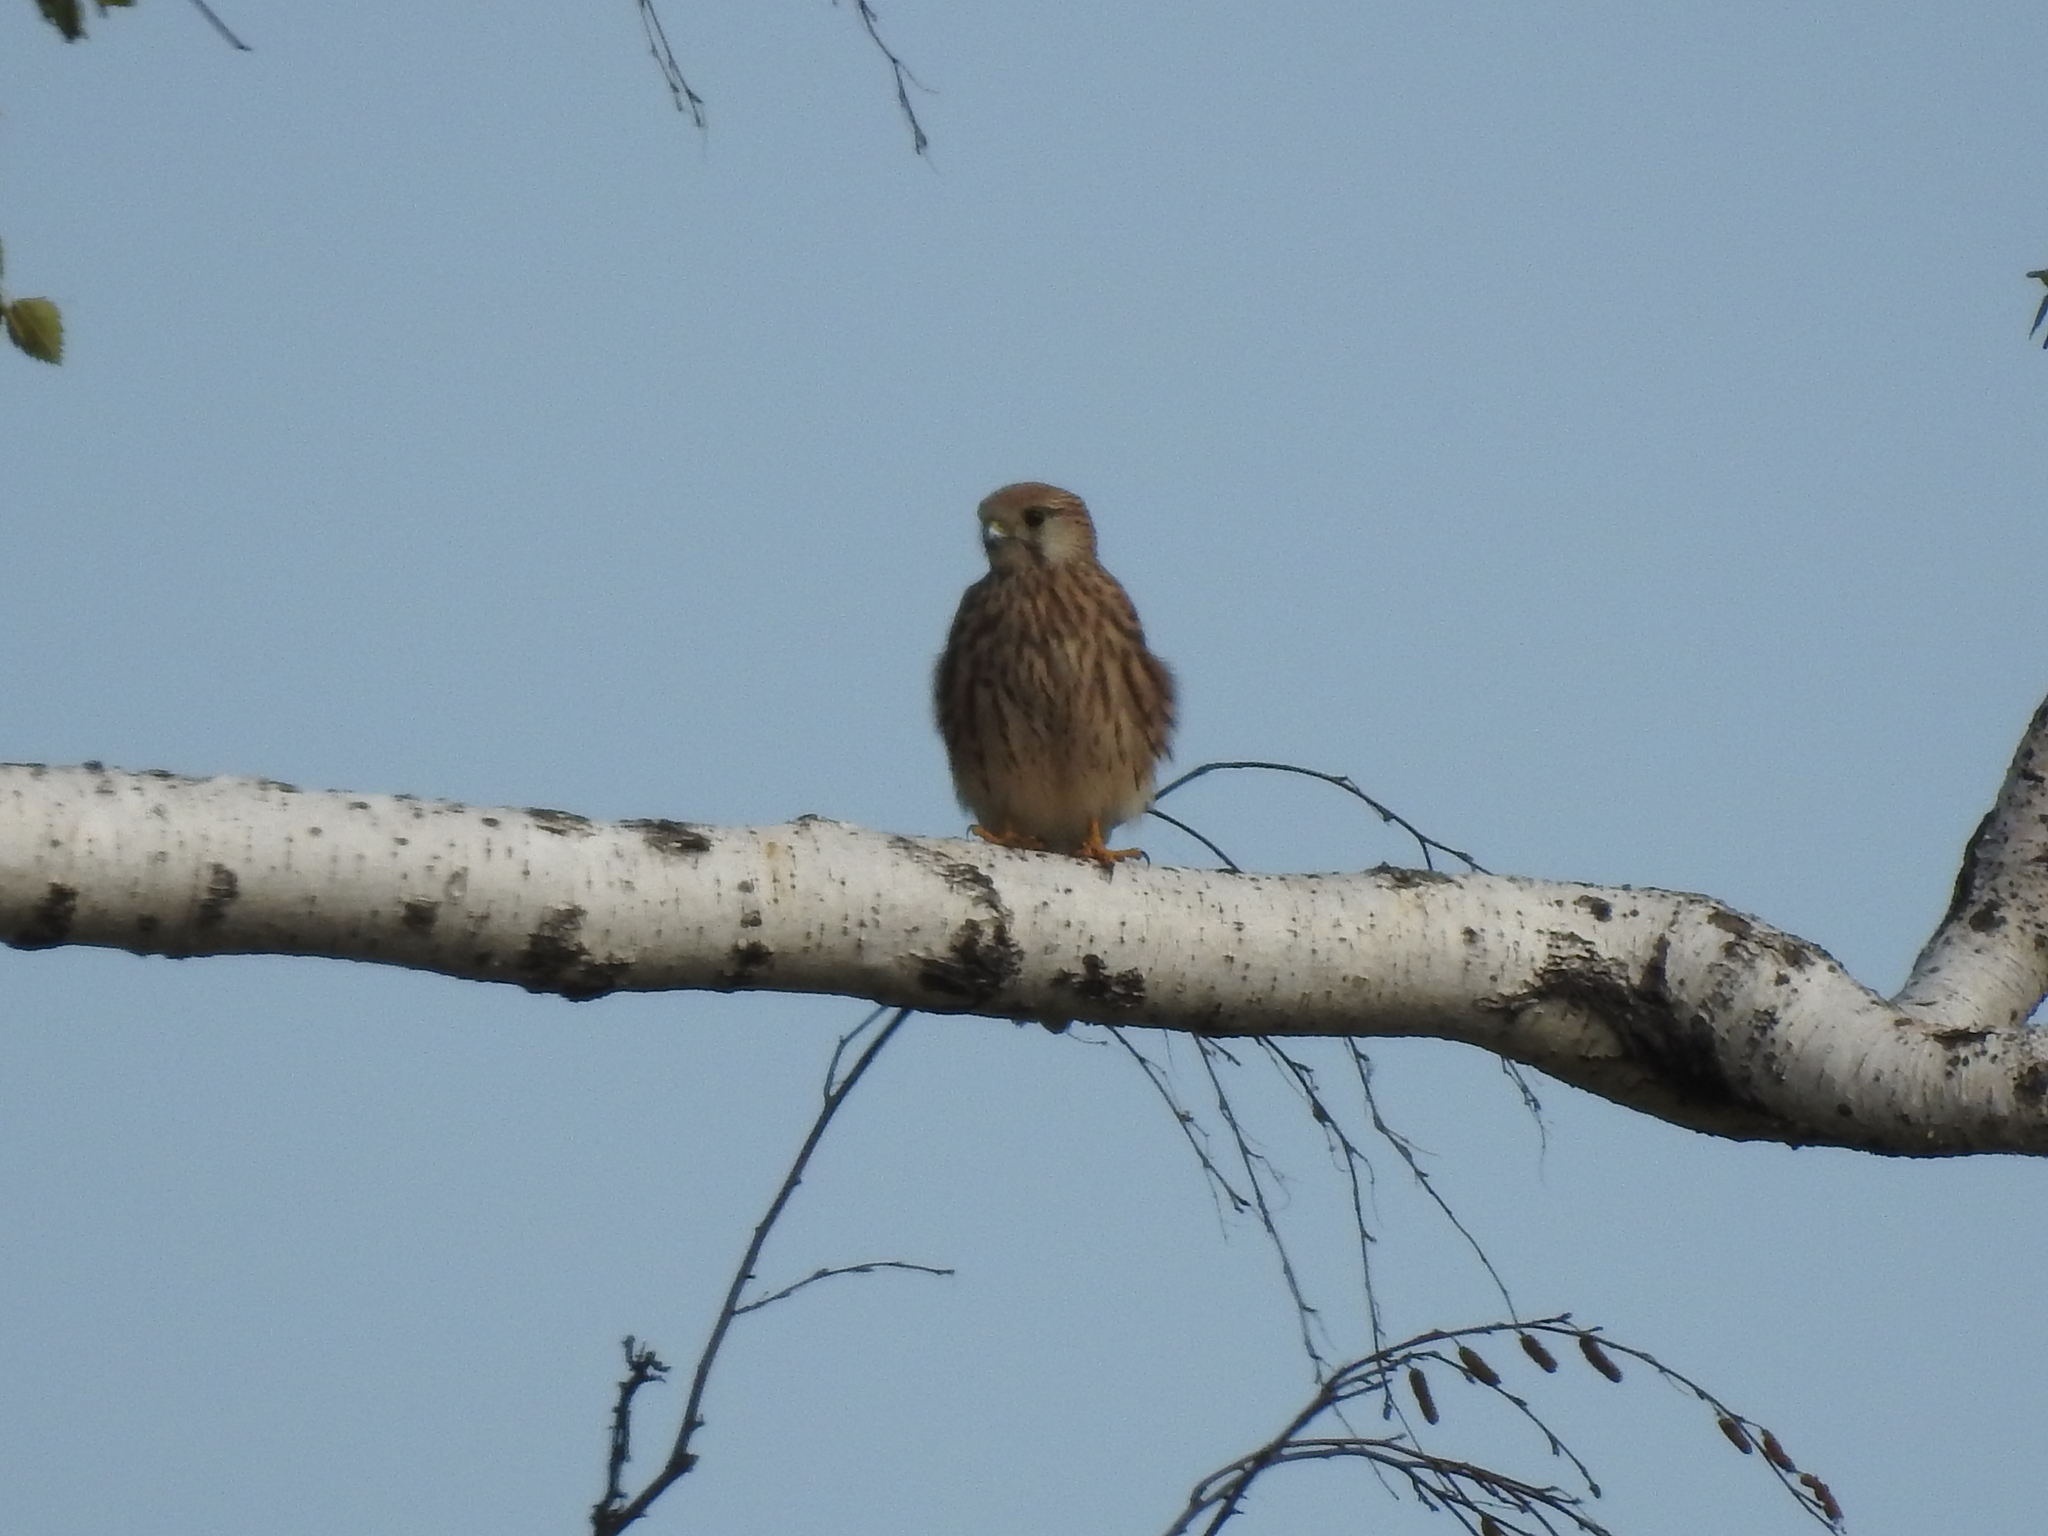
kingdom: Animalia
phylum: Chordata
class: Aves
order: Falconiformes
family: Falconidae
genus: Falco
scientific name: Falco tinnunculus
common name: Common kestrel
